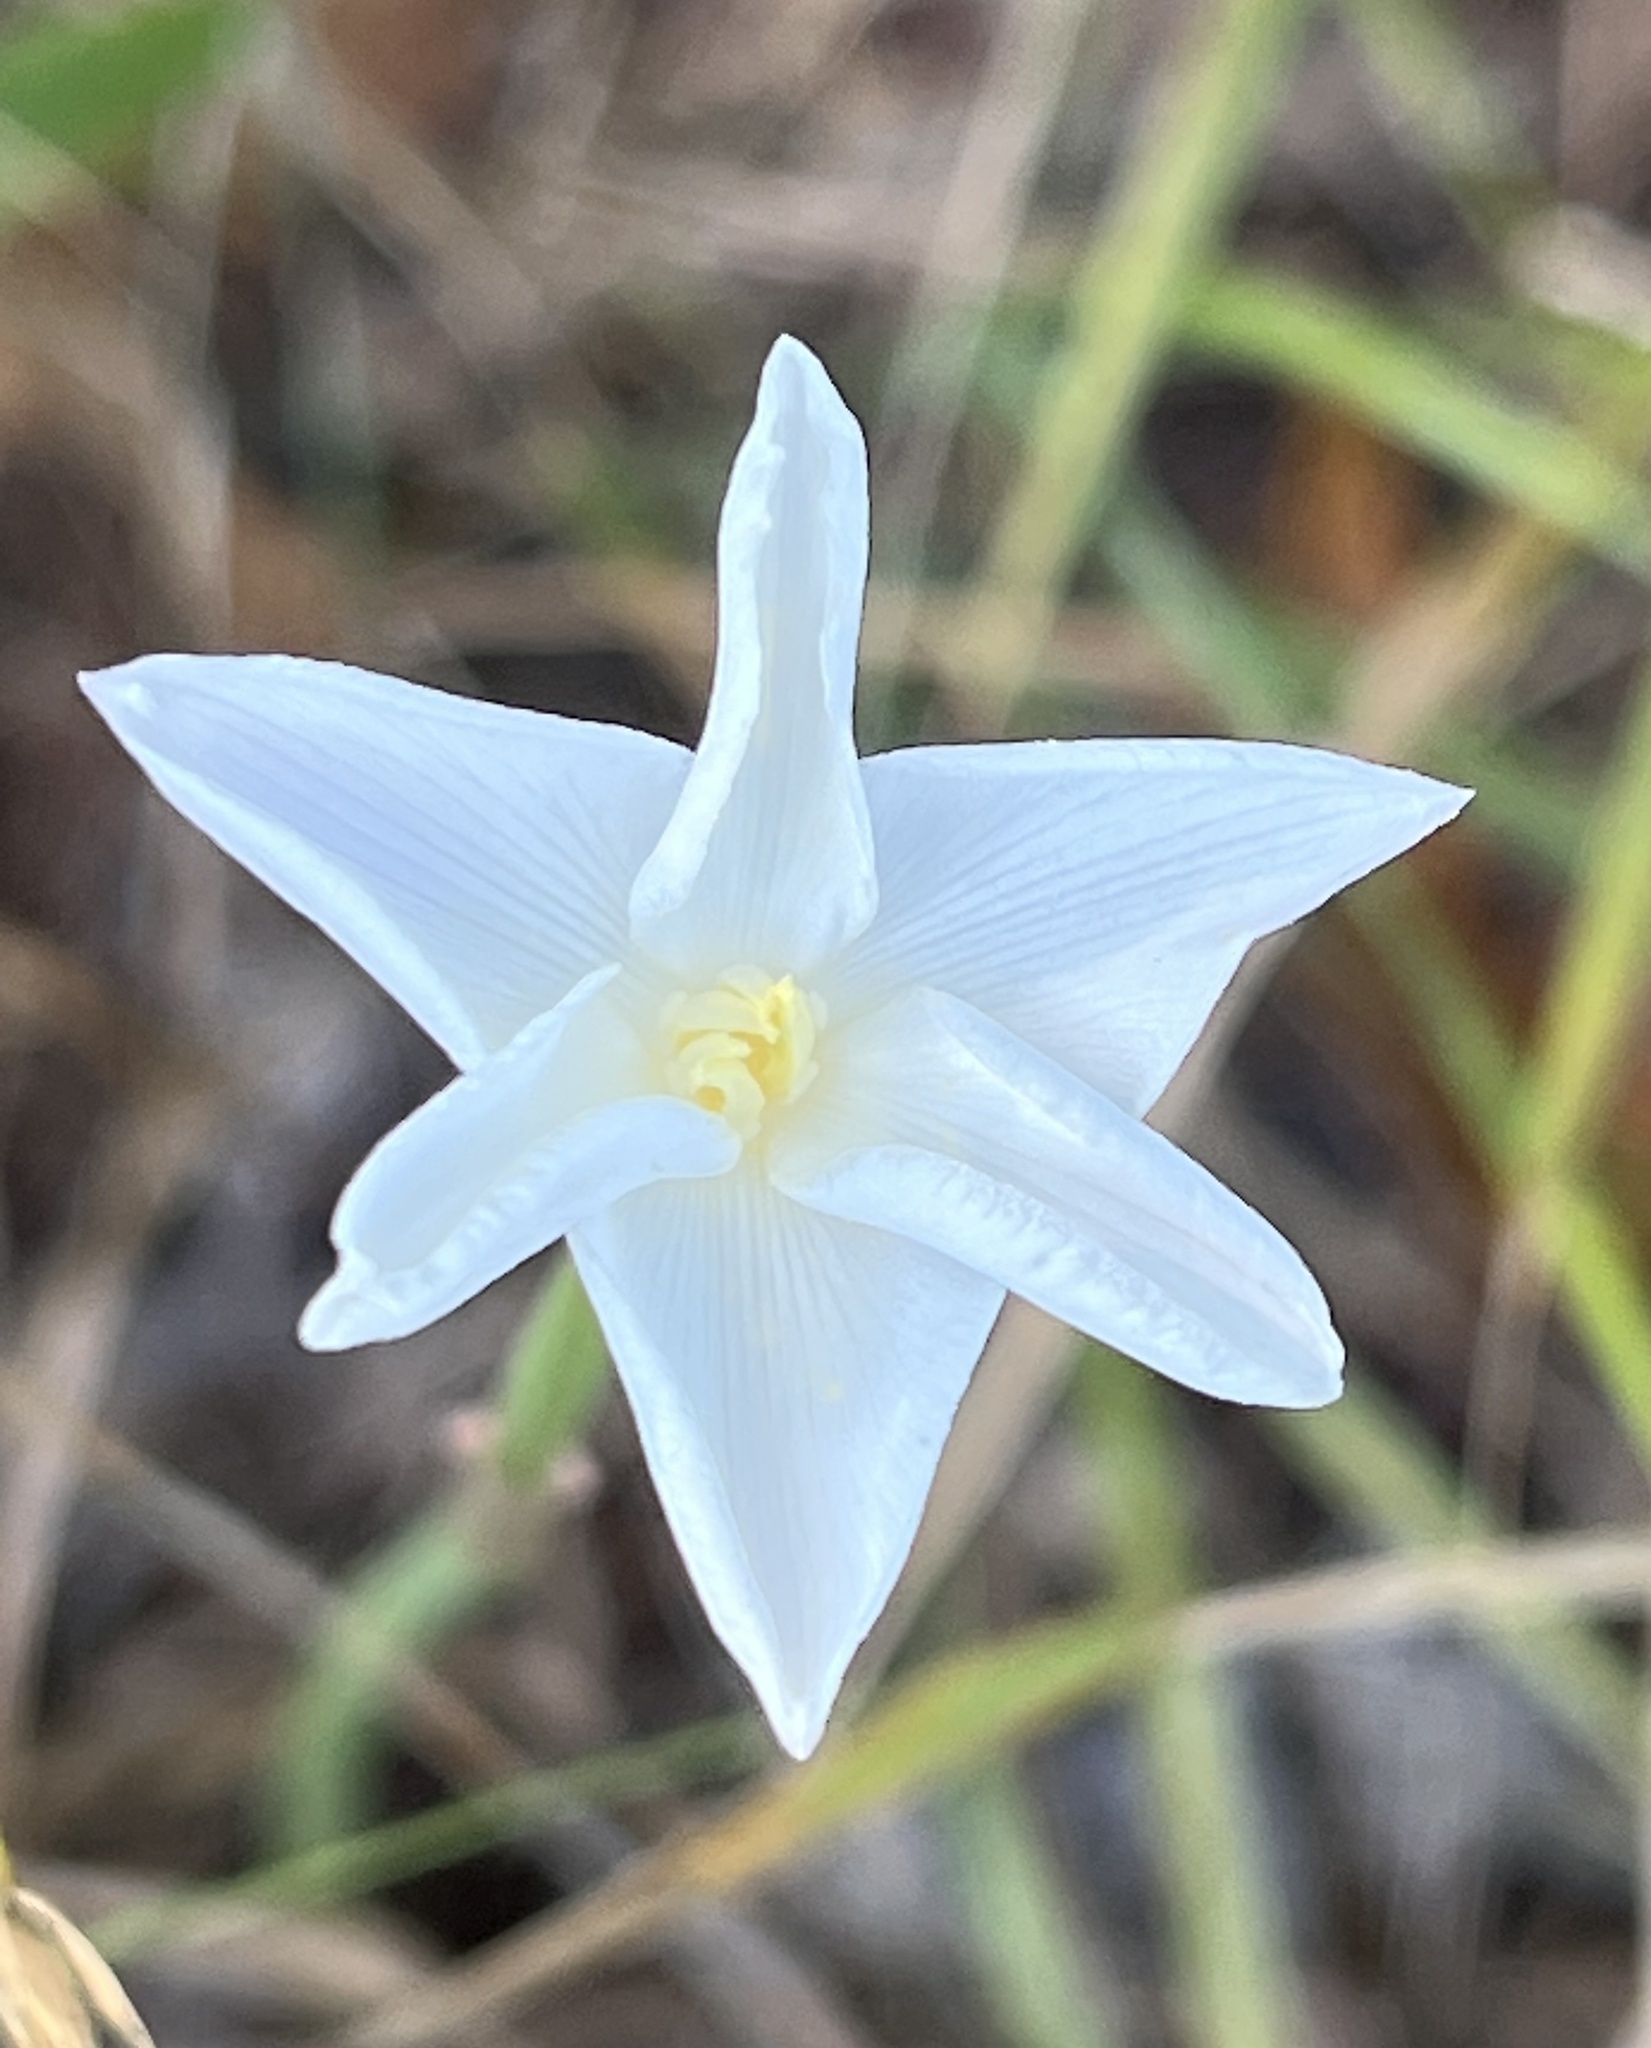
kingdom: Plantae
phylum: Tracheophyta
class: Liliopsida
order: Asparagales
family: Amaryllidaceae
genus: Zephyranthes
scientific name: Zephyranthes chlorosolen
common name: Evening rain-lily
